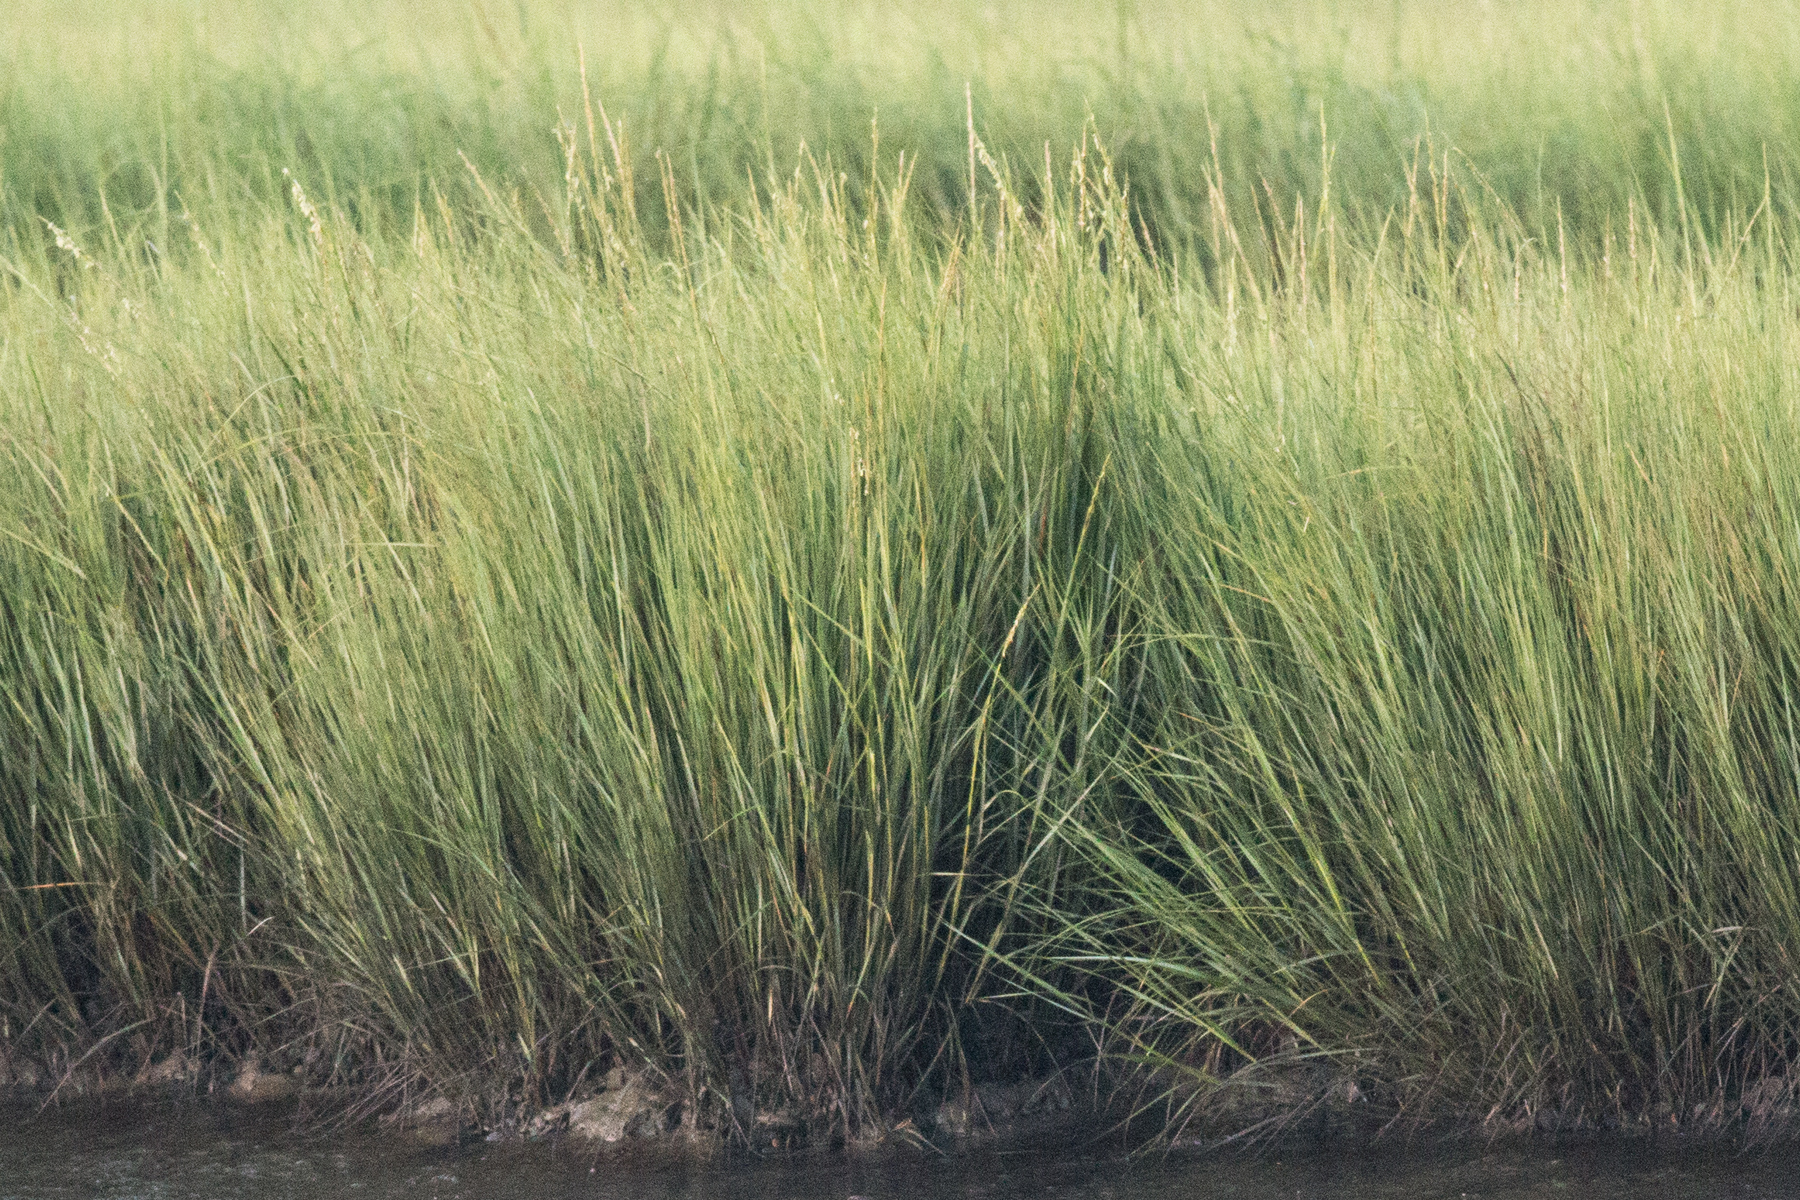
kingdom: Plantae
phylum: Tracheophyta
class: Liliopsida
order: Poales
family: Poaceae
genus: Sporobolus
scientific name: Sporobolus alterniflorus
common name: Atlantic cordgrass
